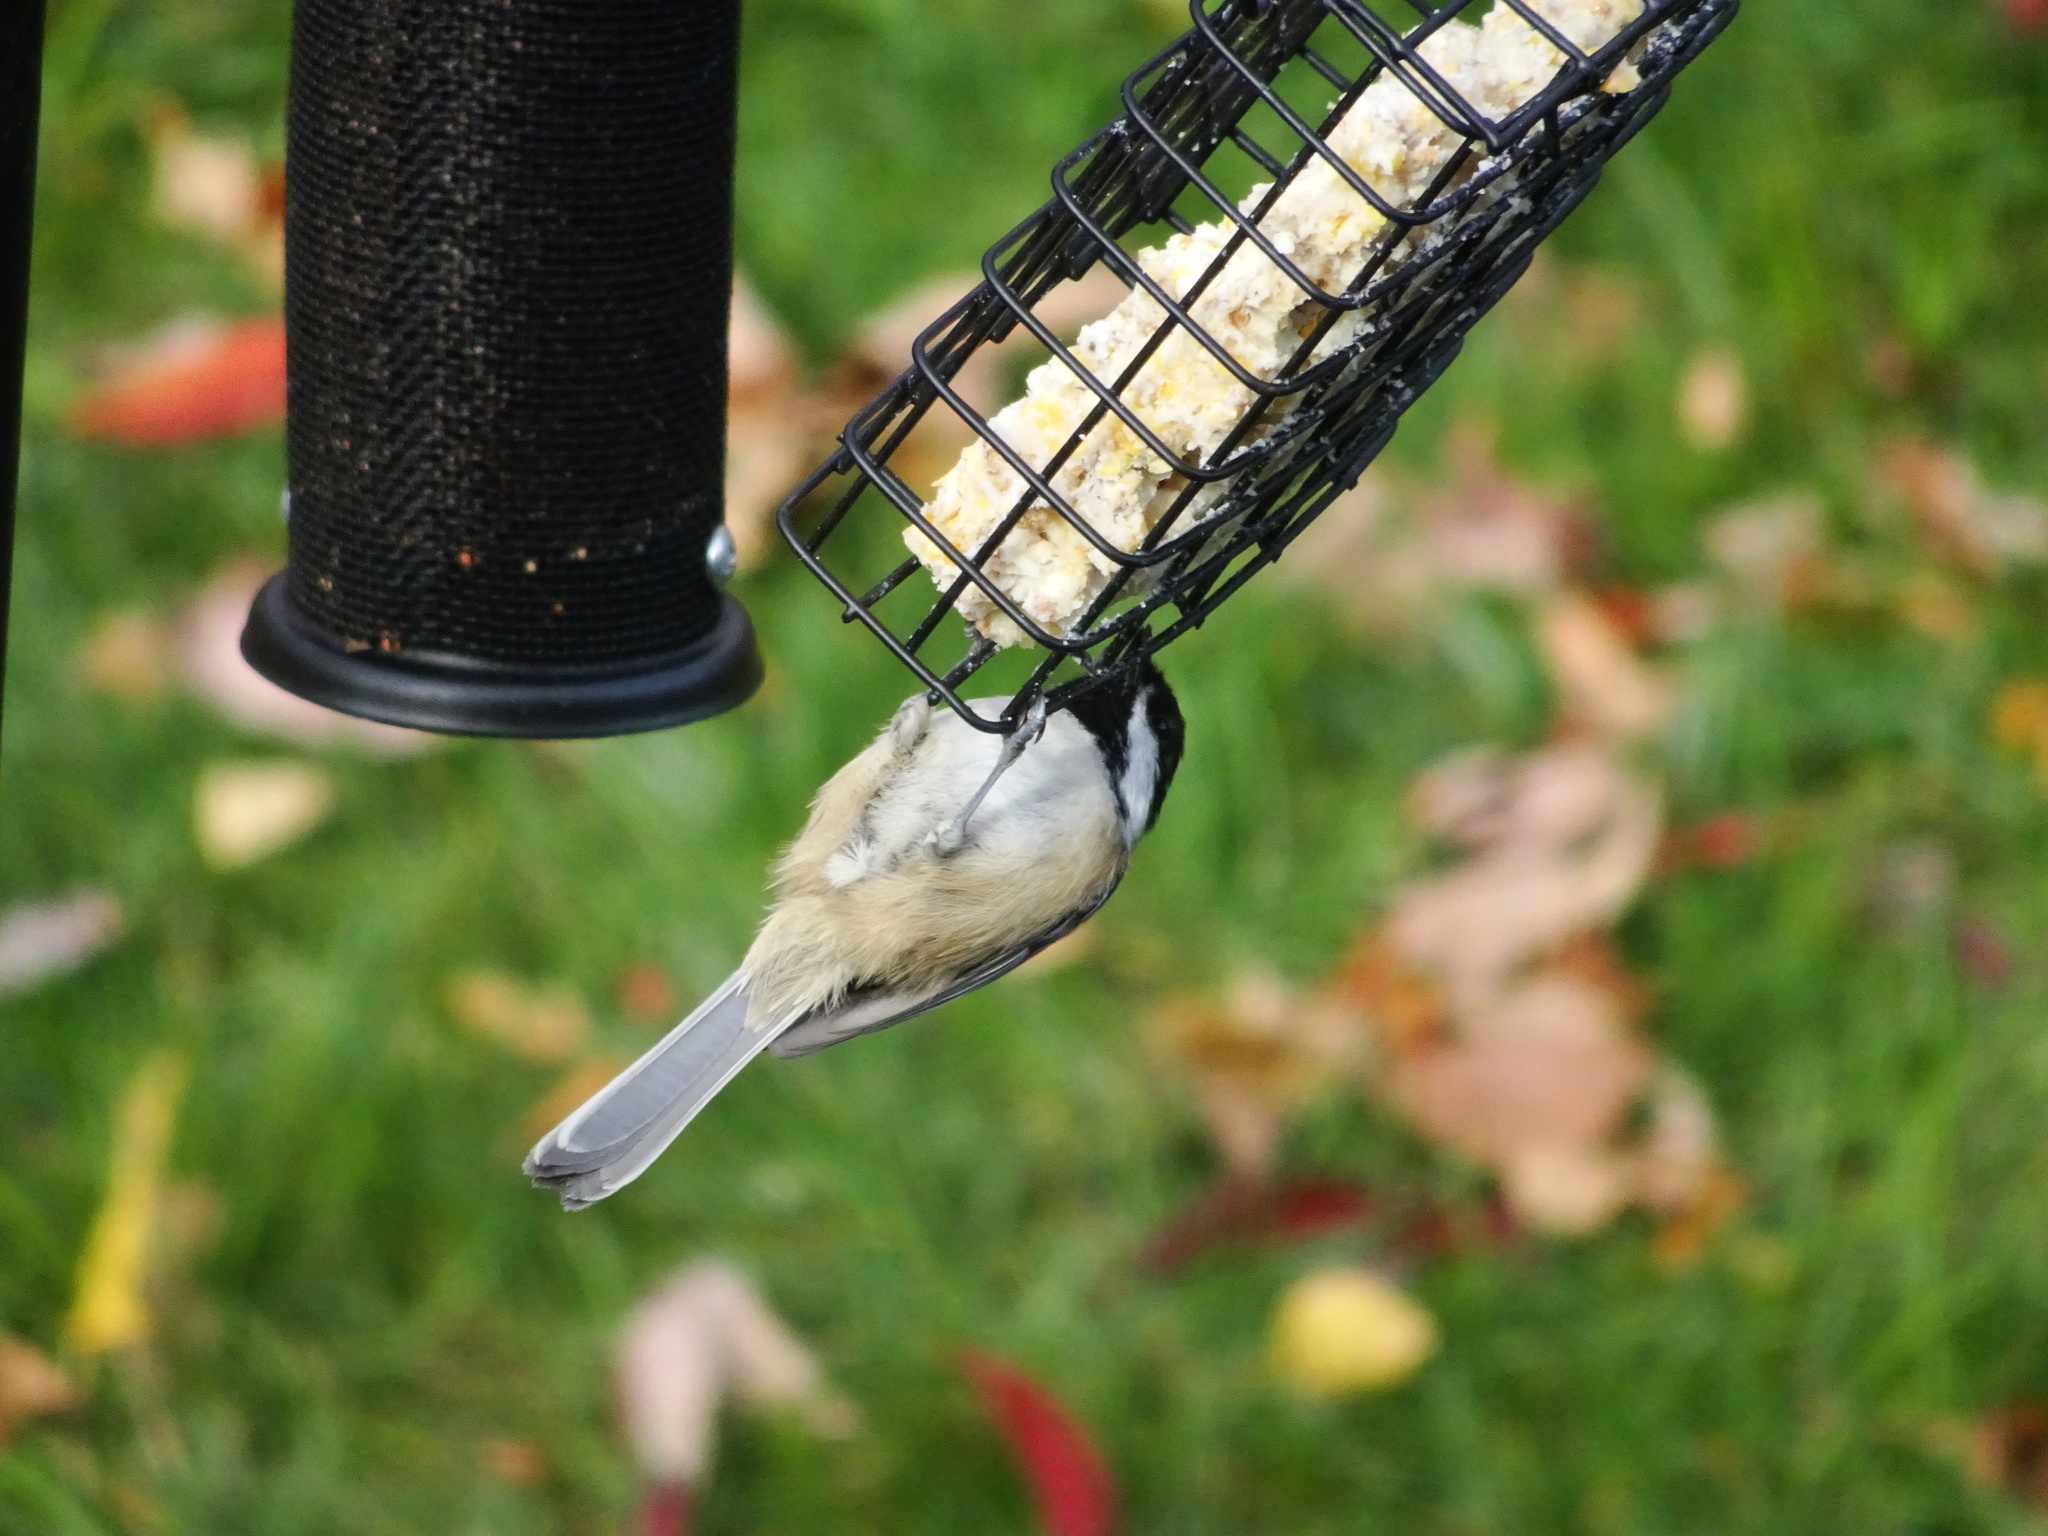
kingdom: Animalia
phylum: Chordata
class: Aves
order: Passeriformes
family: Paridae
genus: Poecile
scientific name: Poecile atricapillus
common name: Black-capped chickadee
